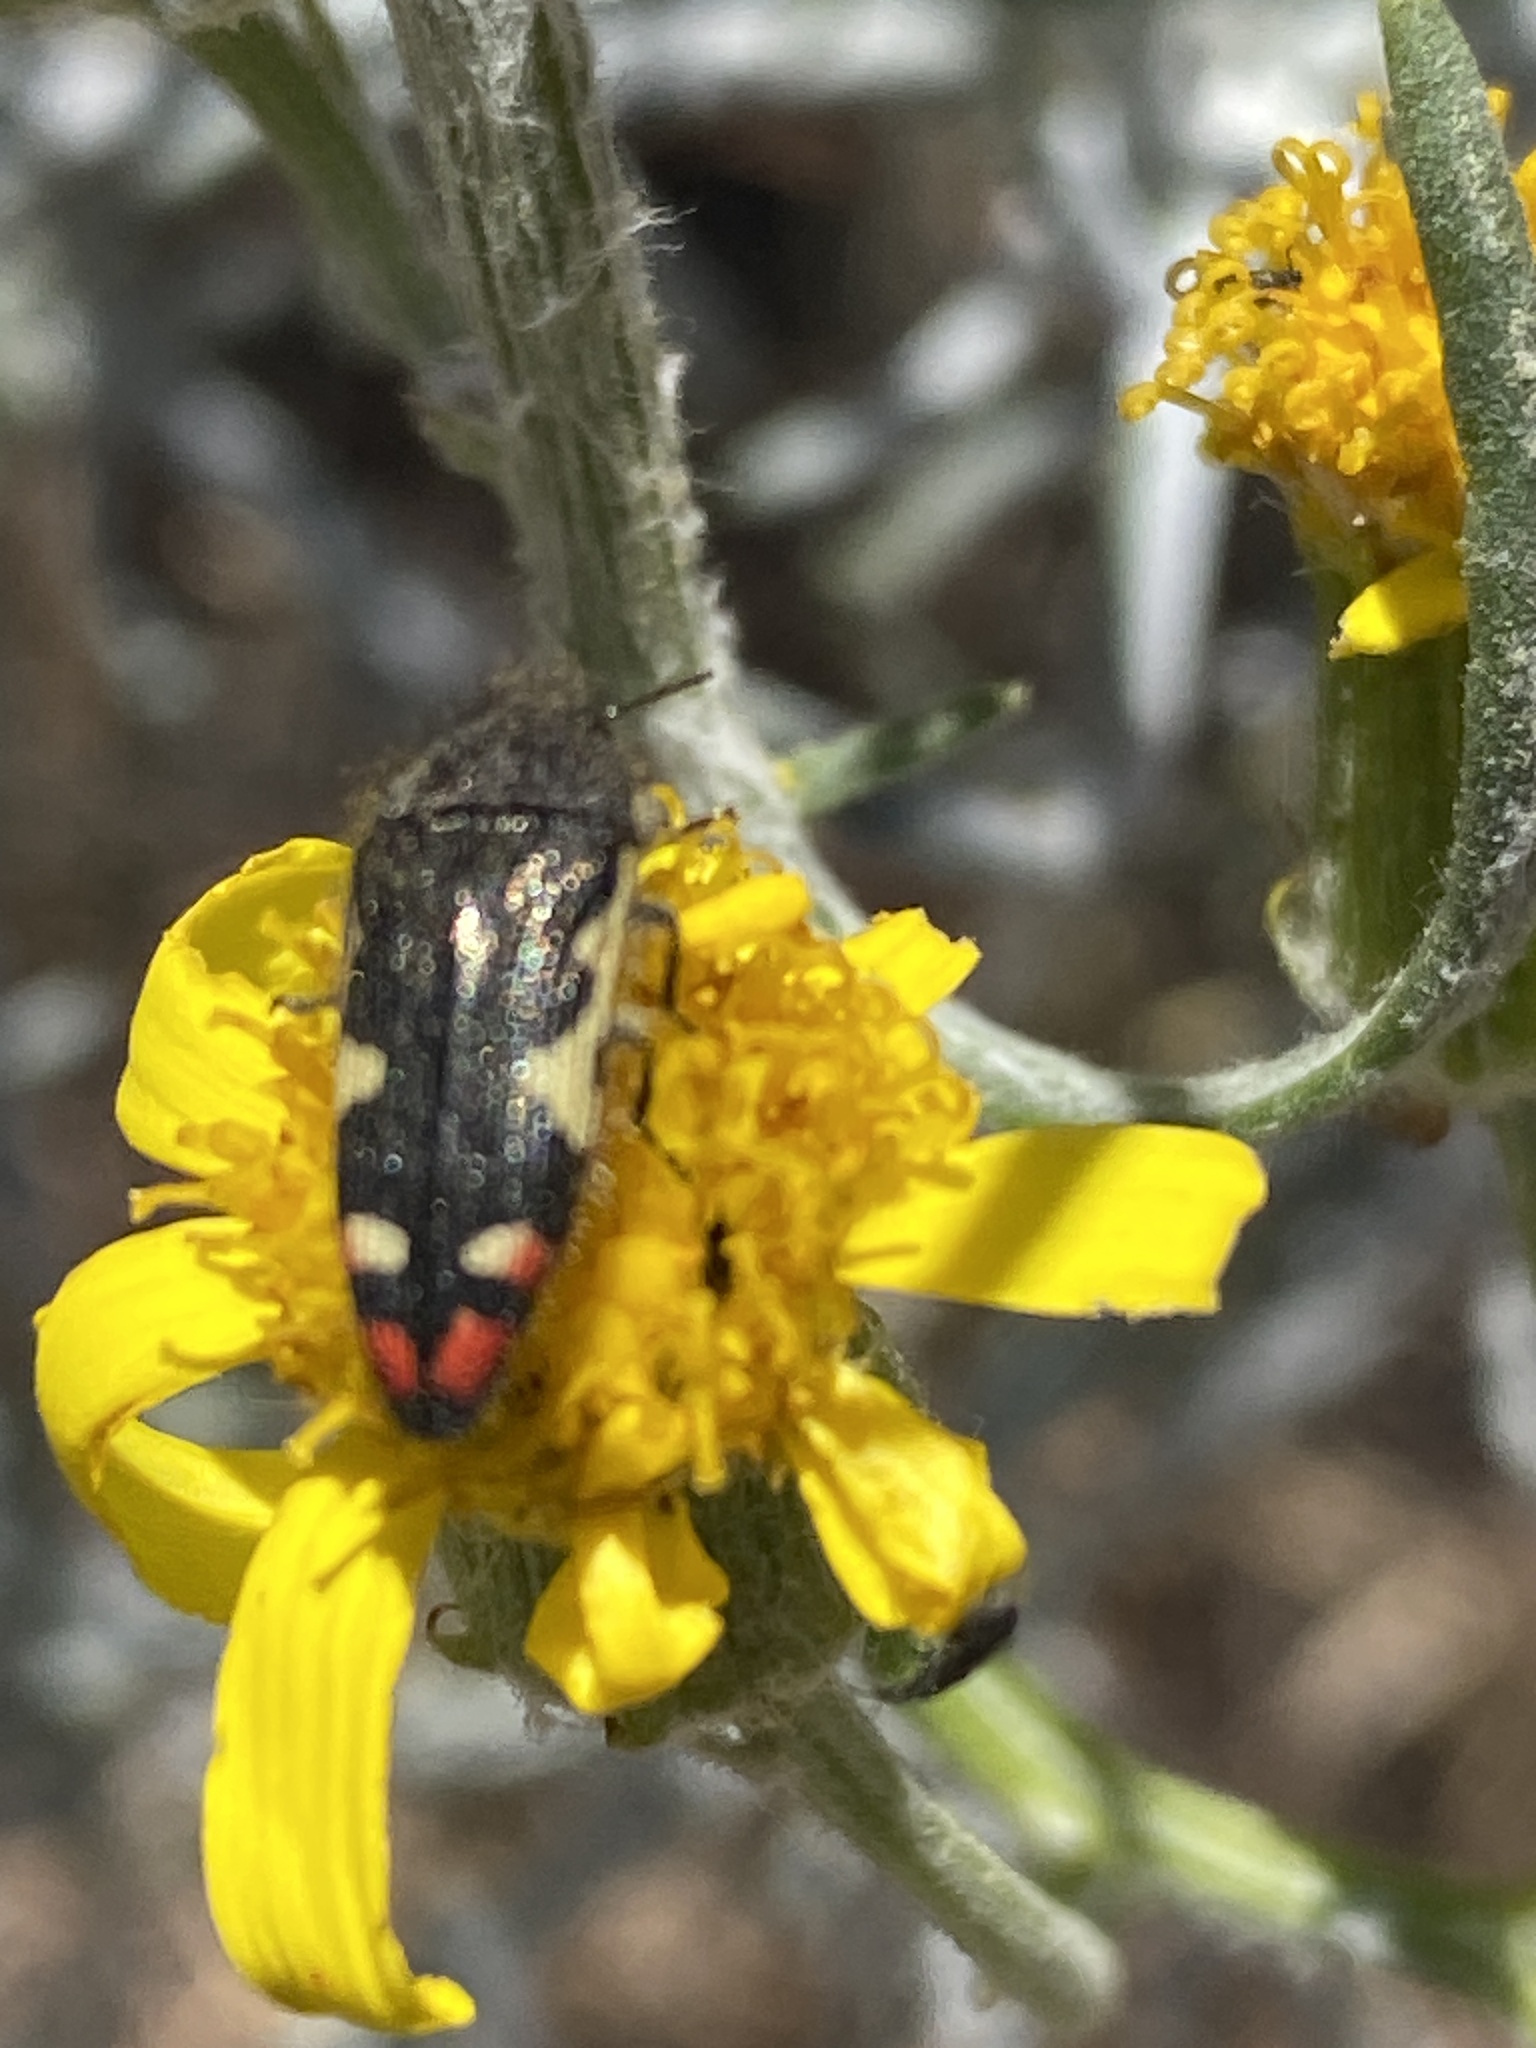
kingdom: Animalia
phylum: Arthropoda
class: Insecta
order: Coleoptera
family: Buprestidae
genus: Acmaeodera
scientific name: Acmaeodera amabilis
